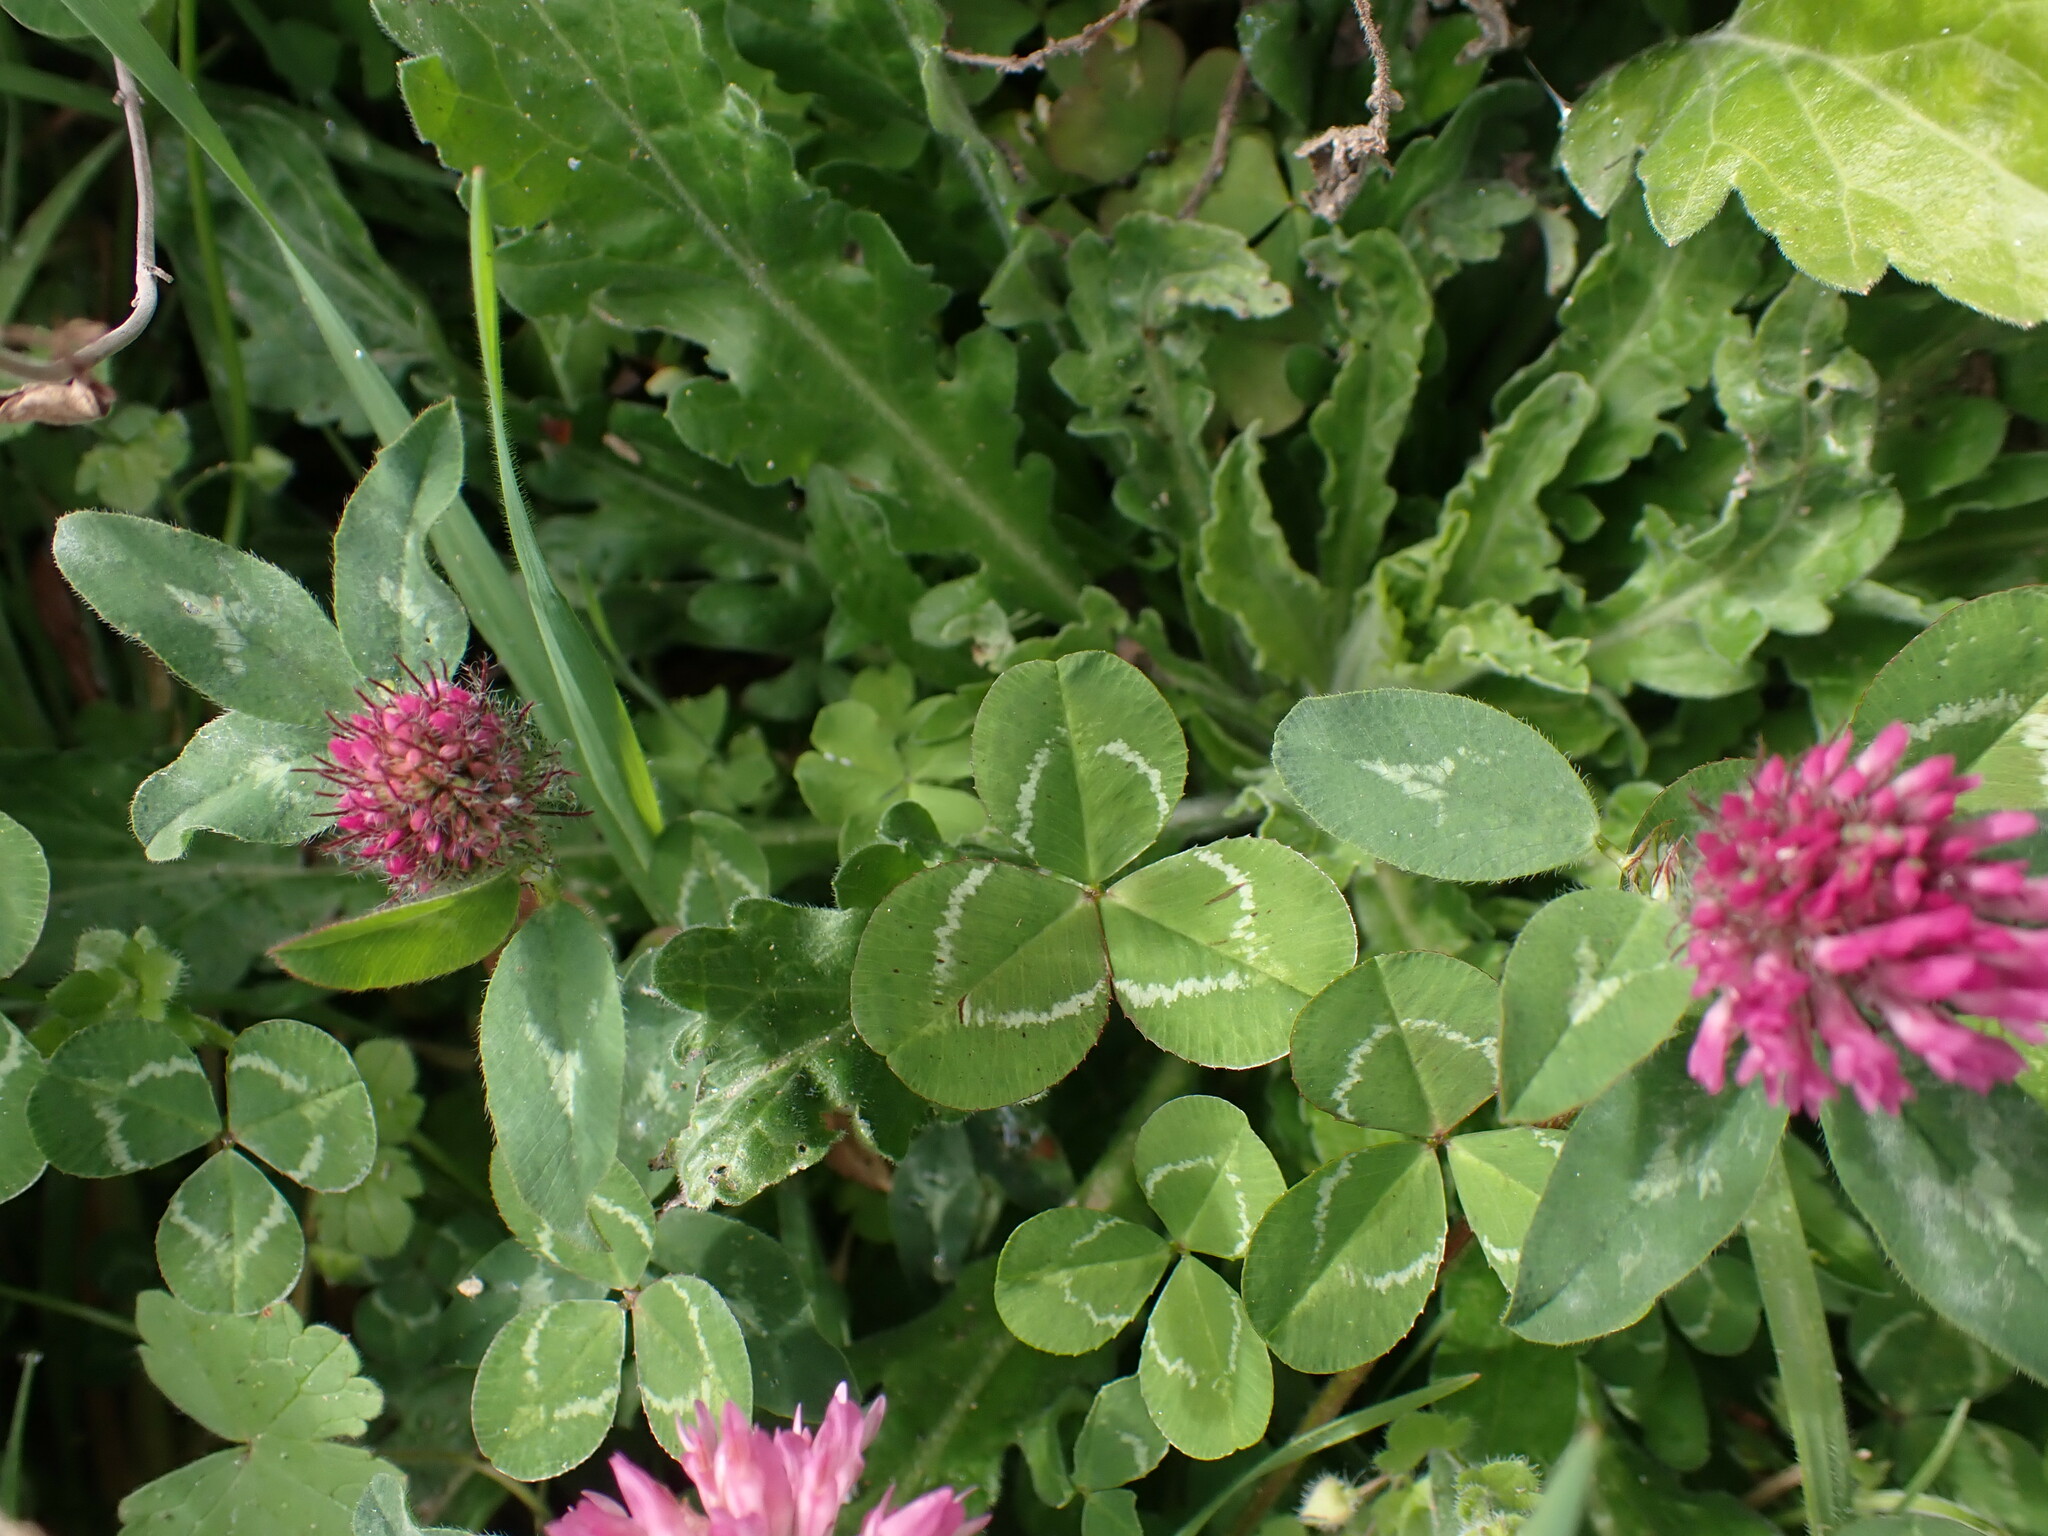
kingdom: Plantae
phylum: Tracheophyta
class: Magnoliopsida
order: Fabales
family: Fabaceae
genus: Trifolium
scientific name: Trifolium pratense
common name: Red clover
